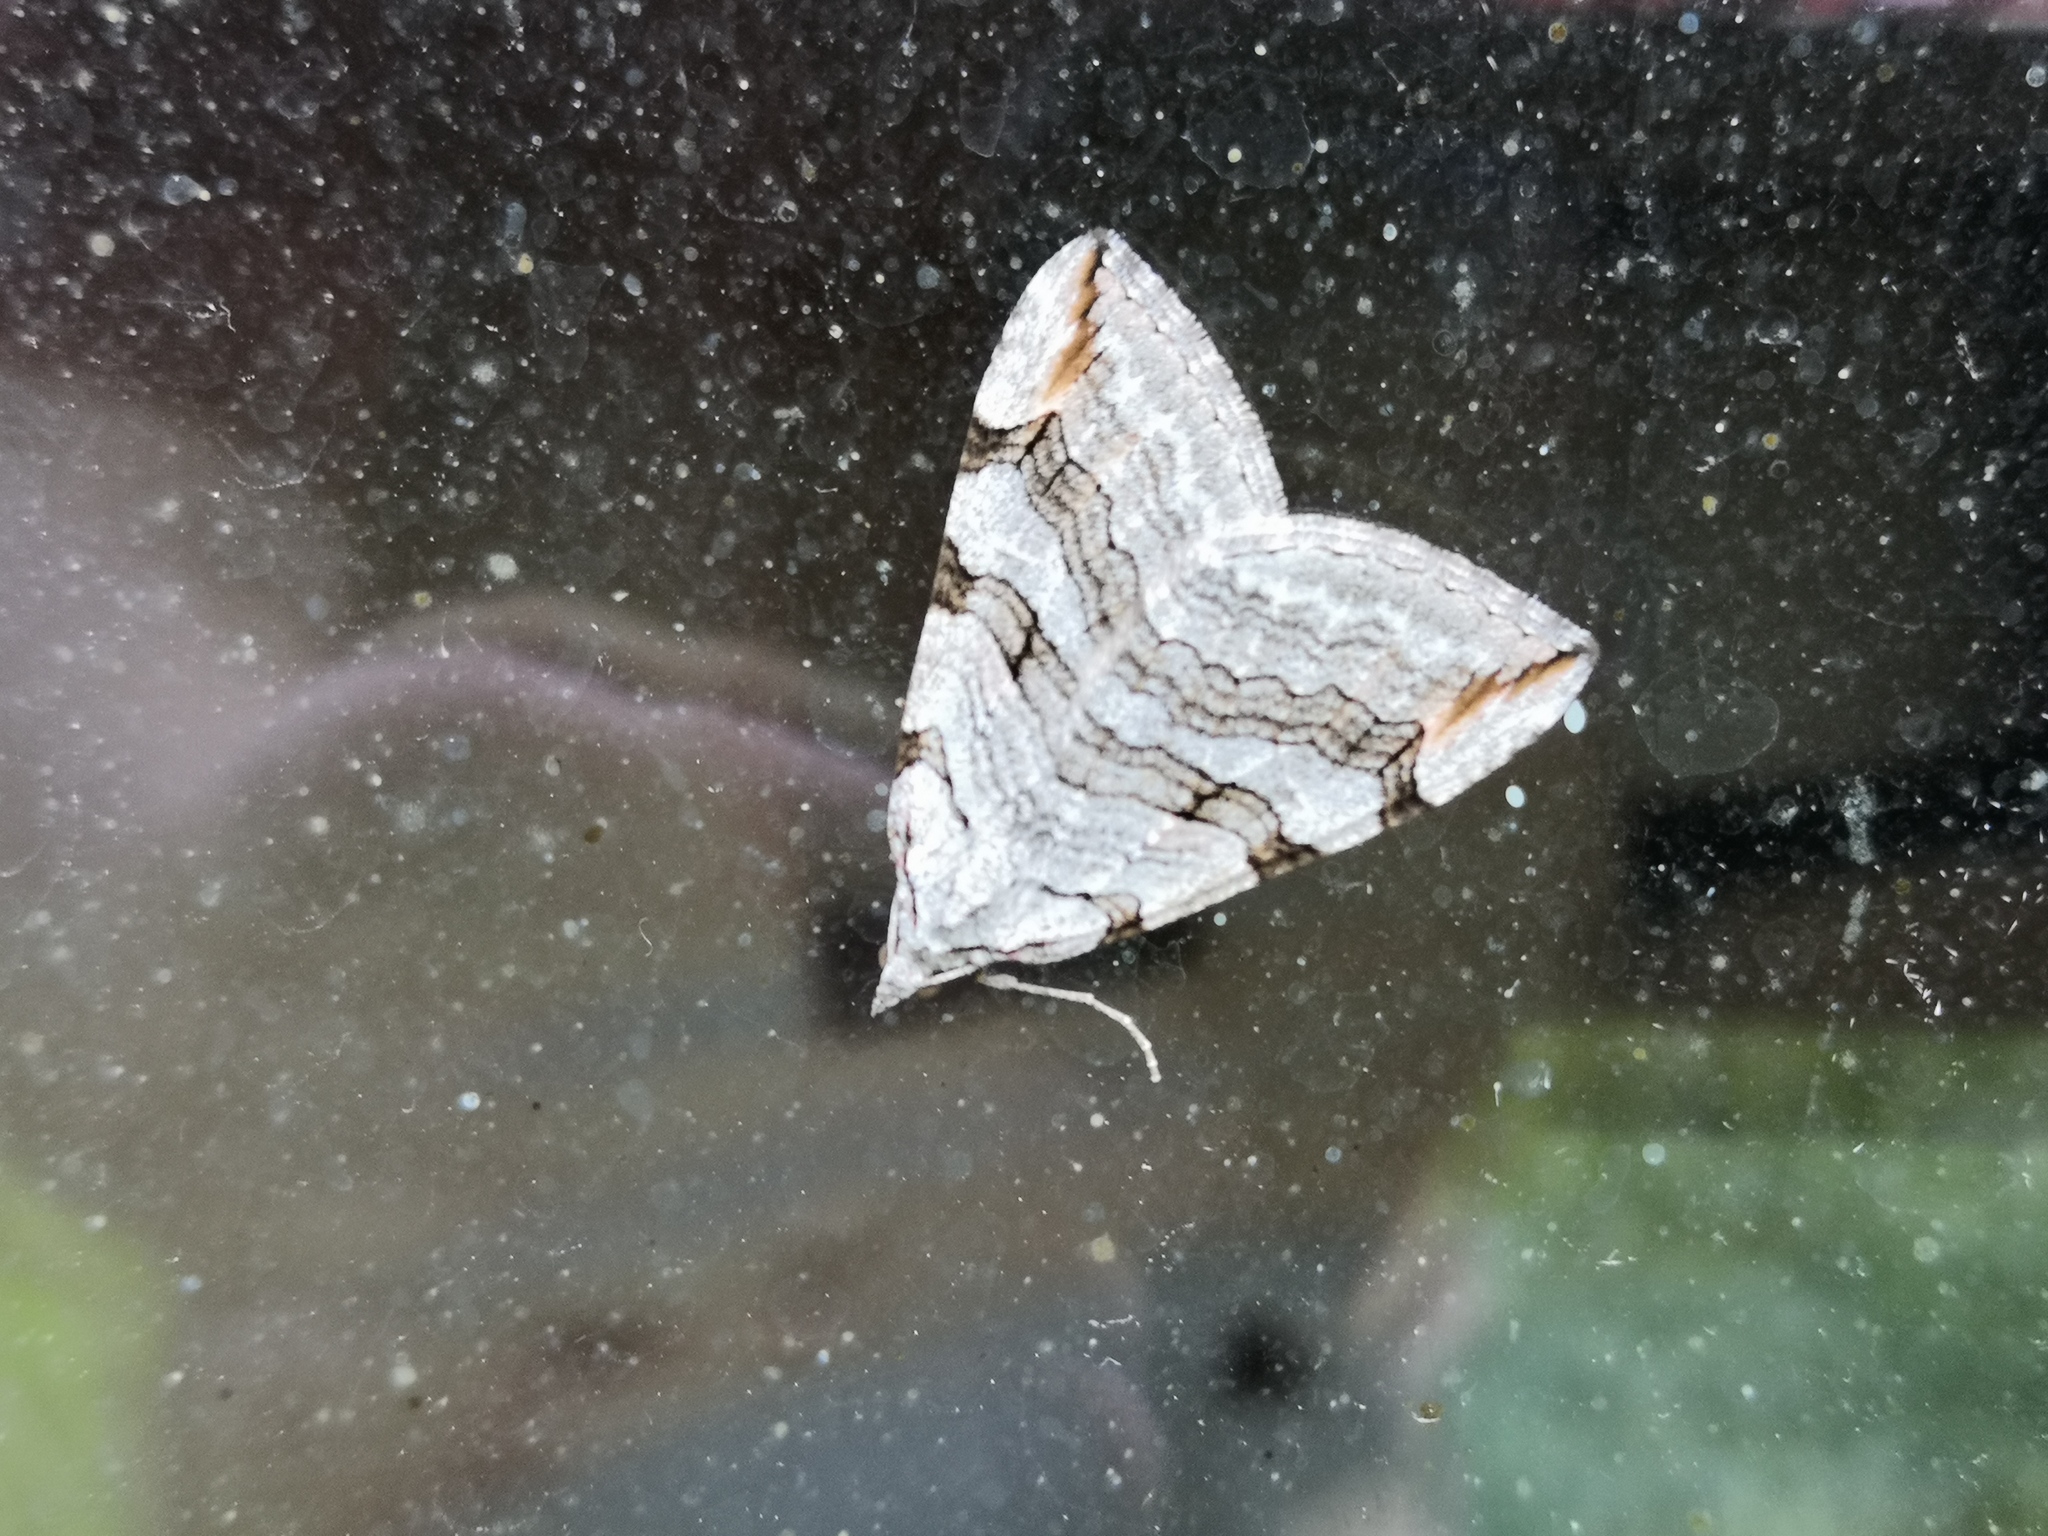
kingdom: Animalia
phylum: Arthropoda
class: Insecta
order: Lepidoptera
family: Geometridae
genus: Aplocera
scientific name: Aplocera plagiata
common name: Treble-bar
